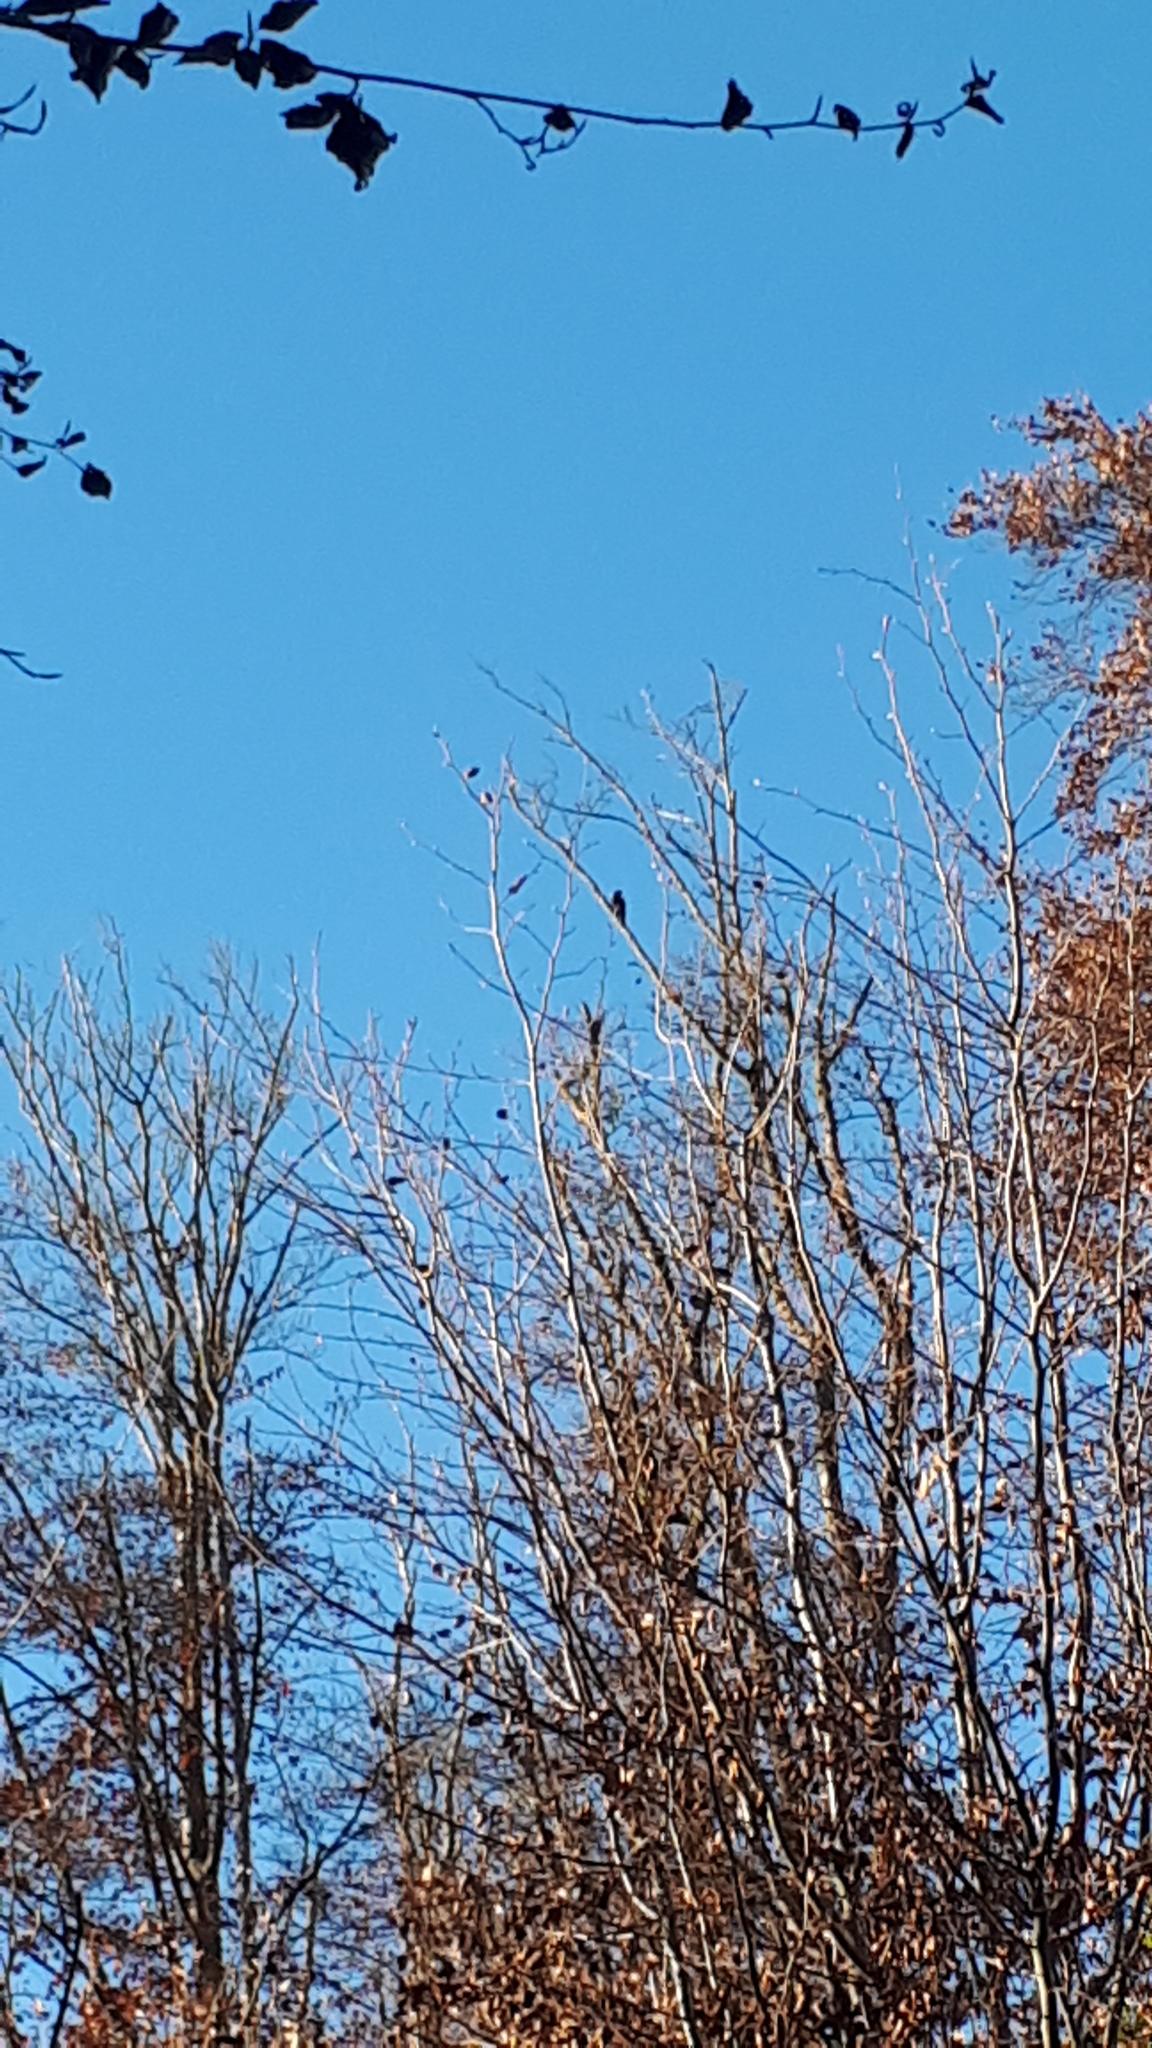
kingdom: Animalia
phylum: Chordata
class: Aves
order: Piciformes
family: Picidae
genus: Dryocopus
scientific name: Dryocopus martius
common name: Black woodpecker
